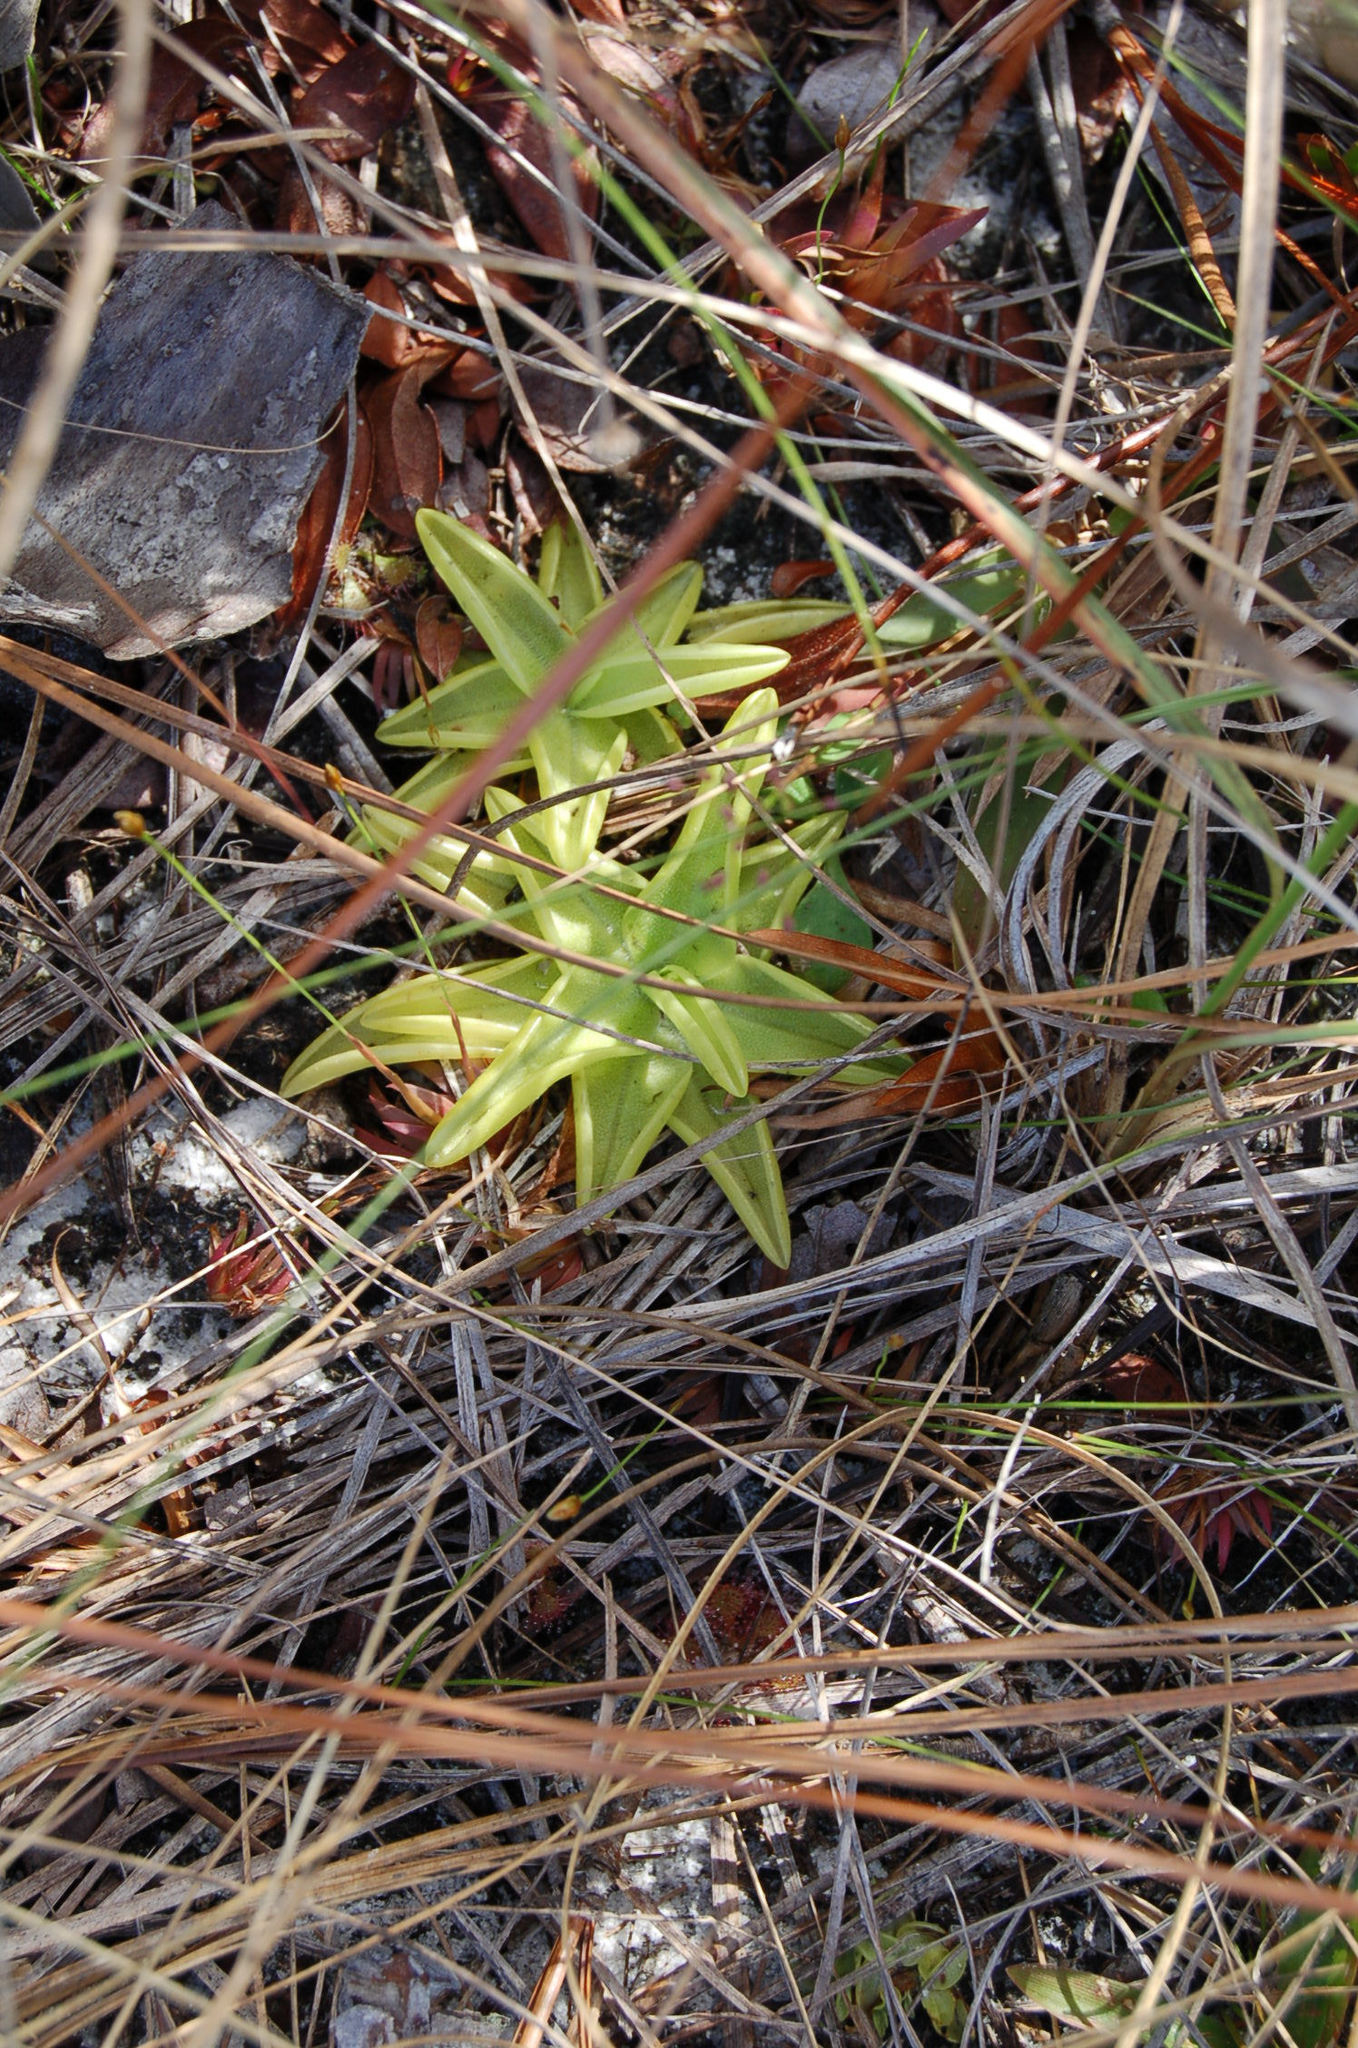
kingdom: Plantae
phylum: Tracheophyta
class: Magnoliopsida
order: Lamiales
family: Lentibulariaceae
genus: Pinguicula
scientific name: Pinguicula lutea
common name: Yellow butterwort
